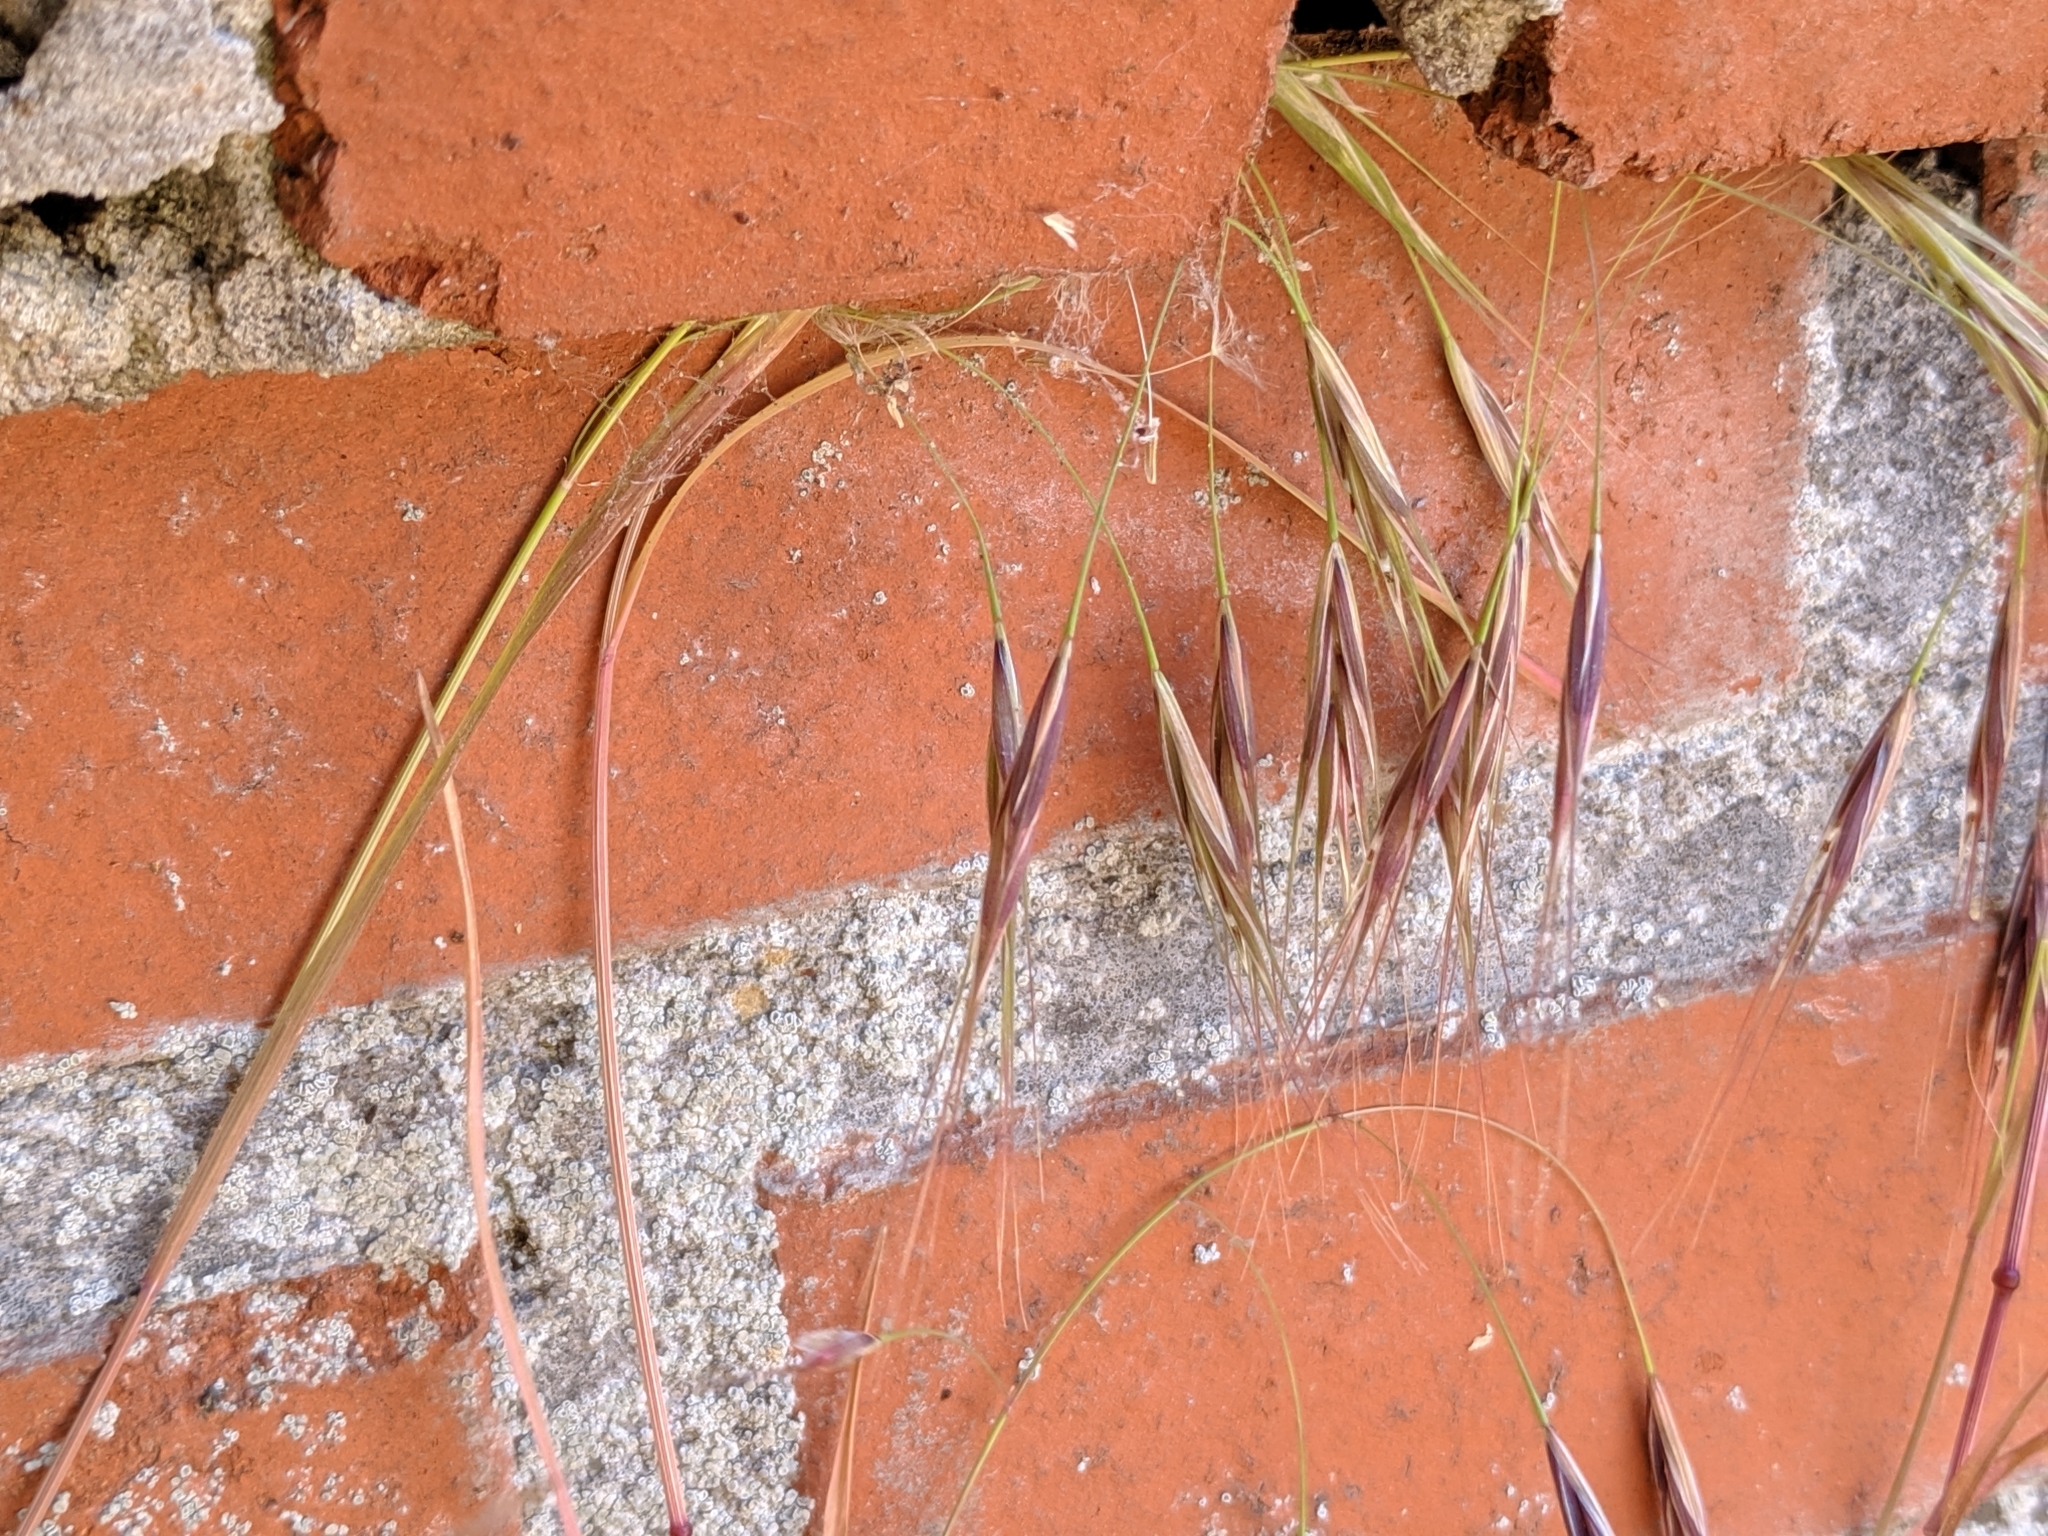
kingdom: Plantae
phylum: Tracheophyta
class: Liliopsida
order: Poales
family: Poaceae
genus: Bromus
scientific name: Bromus sterilis
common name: Poverty brome
